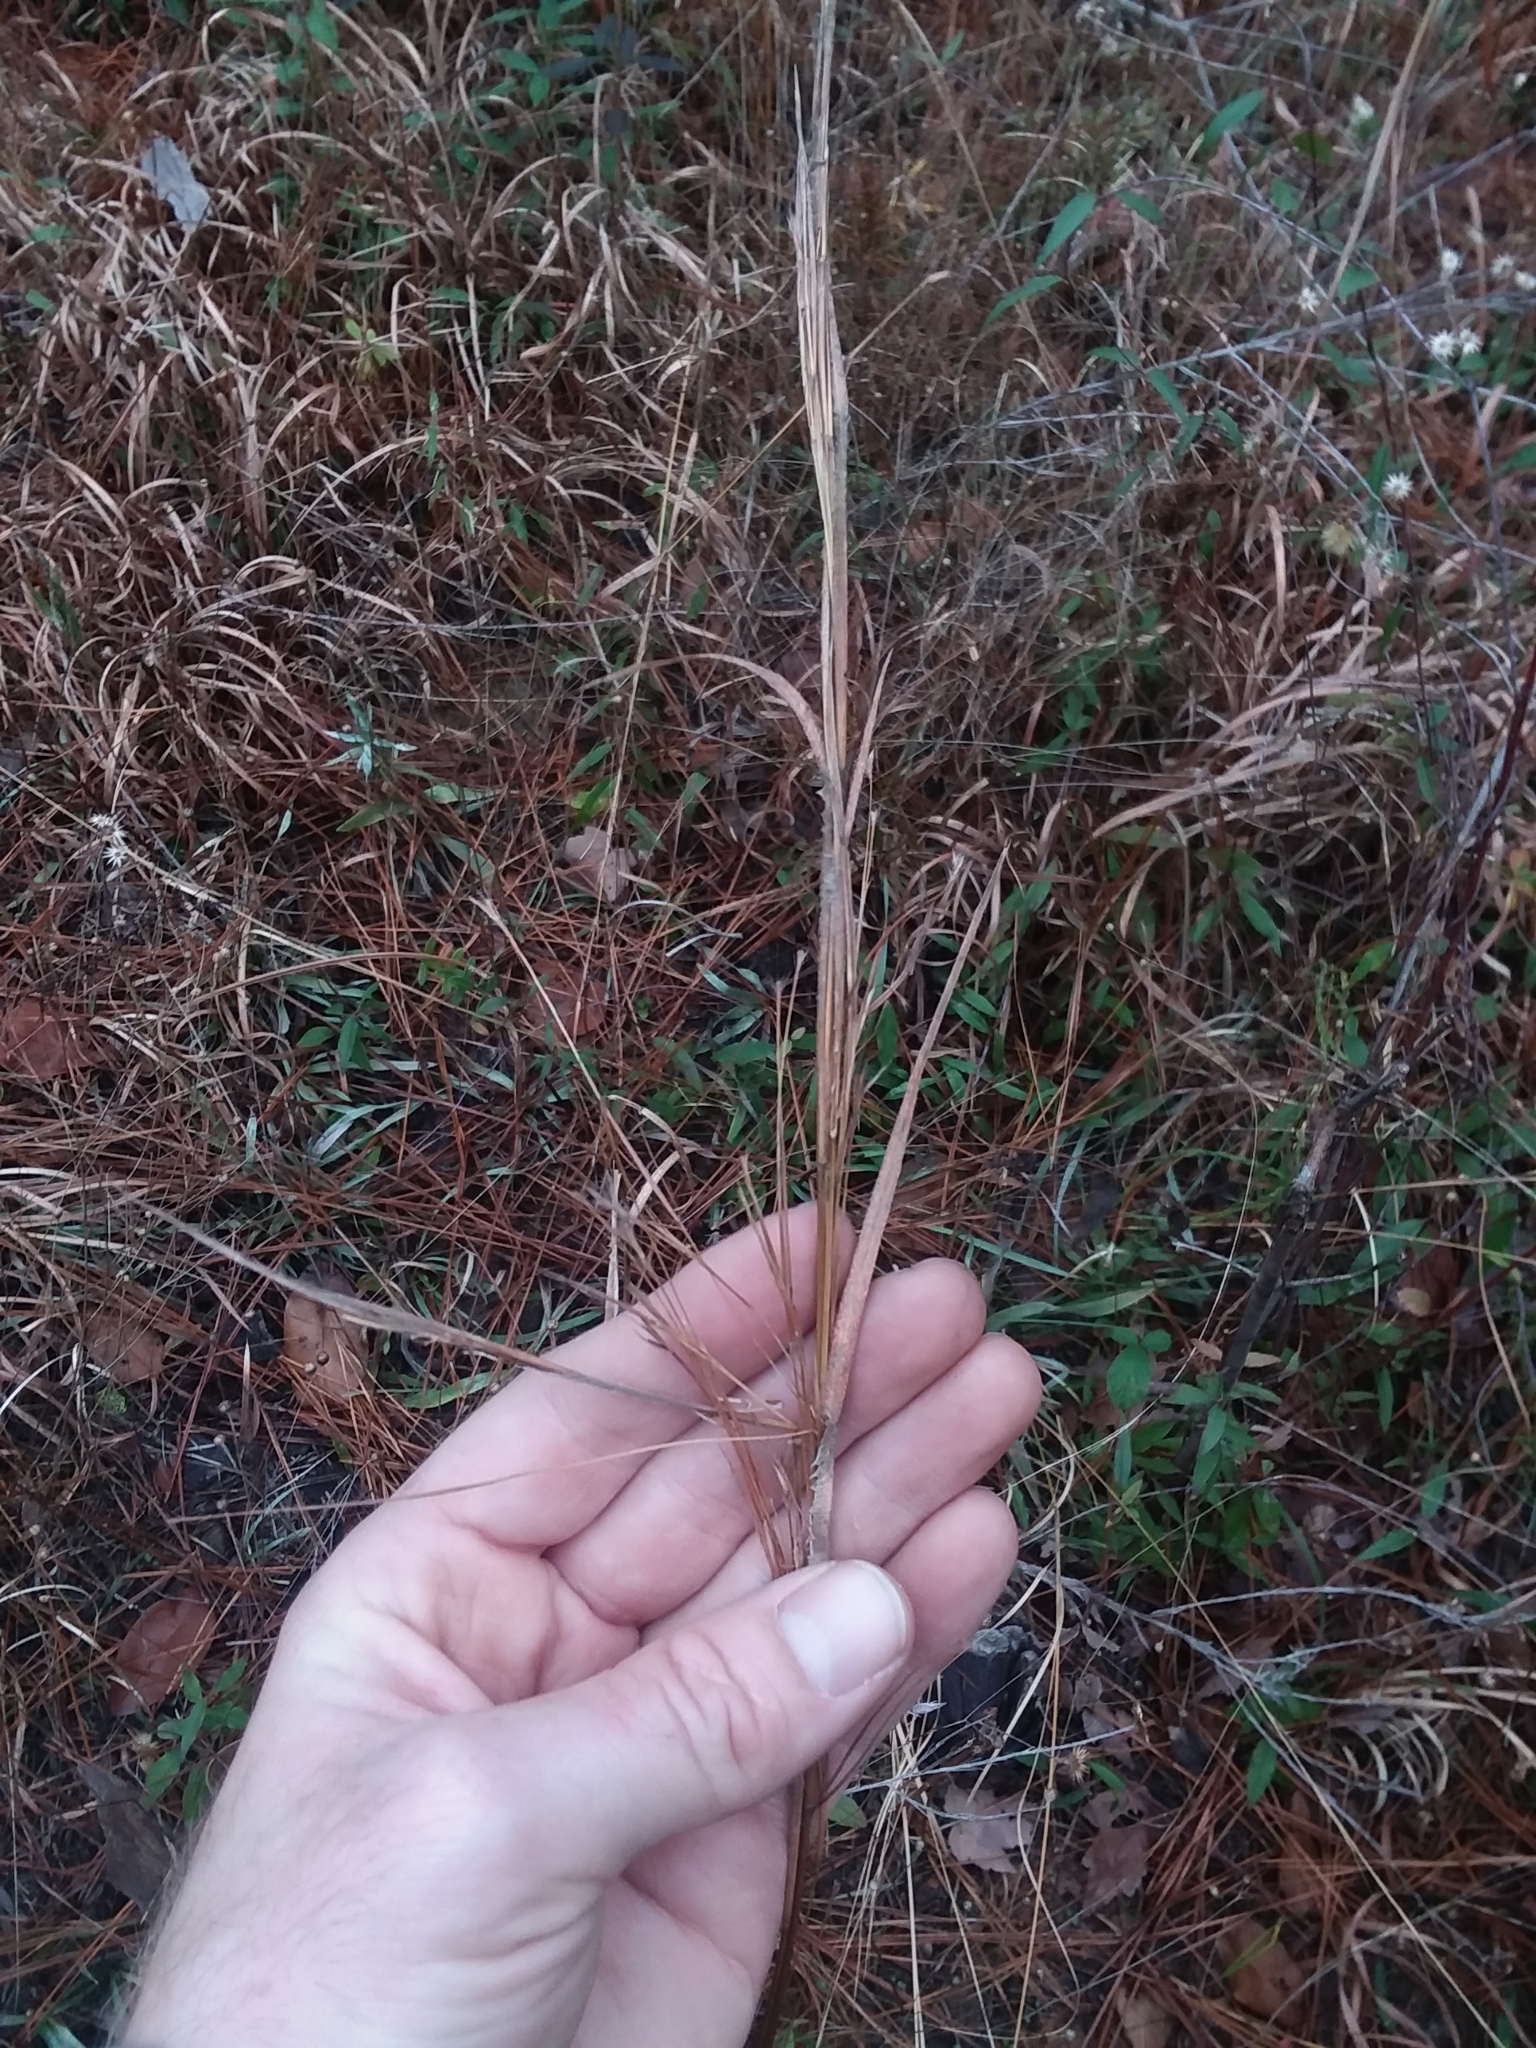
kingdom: Plantae
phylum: Tracheophyta
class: Liliopsida
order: Poales
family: Poaceae
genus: Schizachyrium
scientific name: Schizachyrium scoparium
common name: Little bluestem
